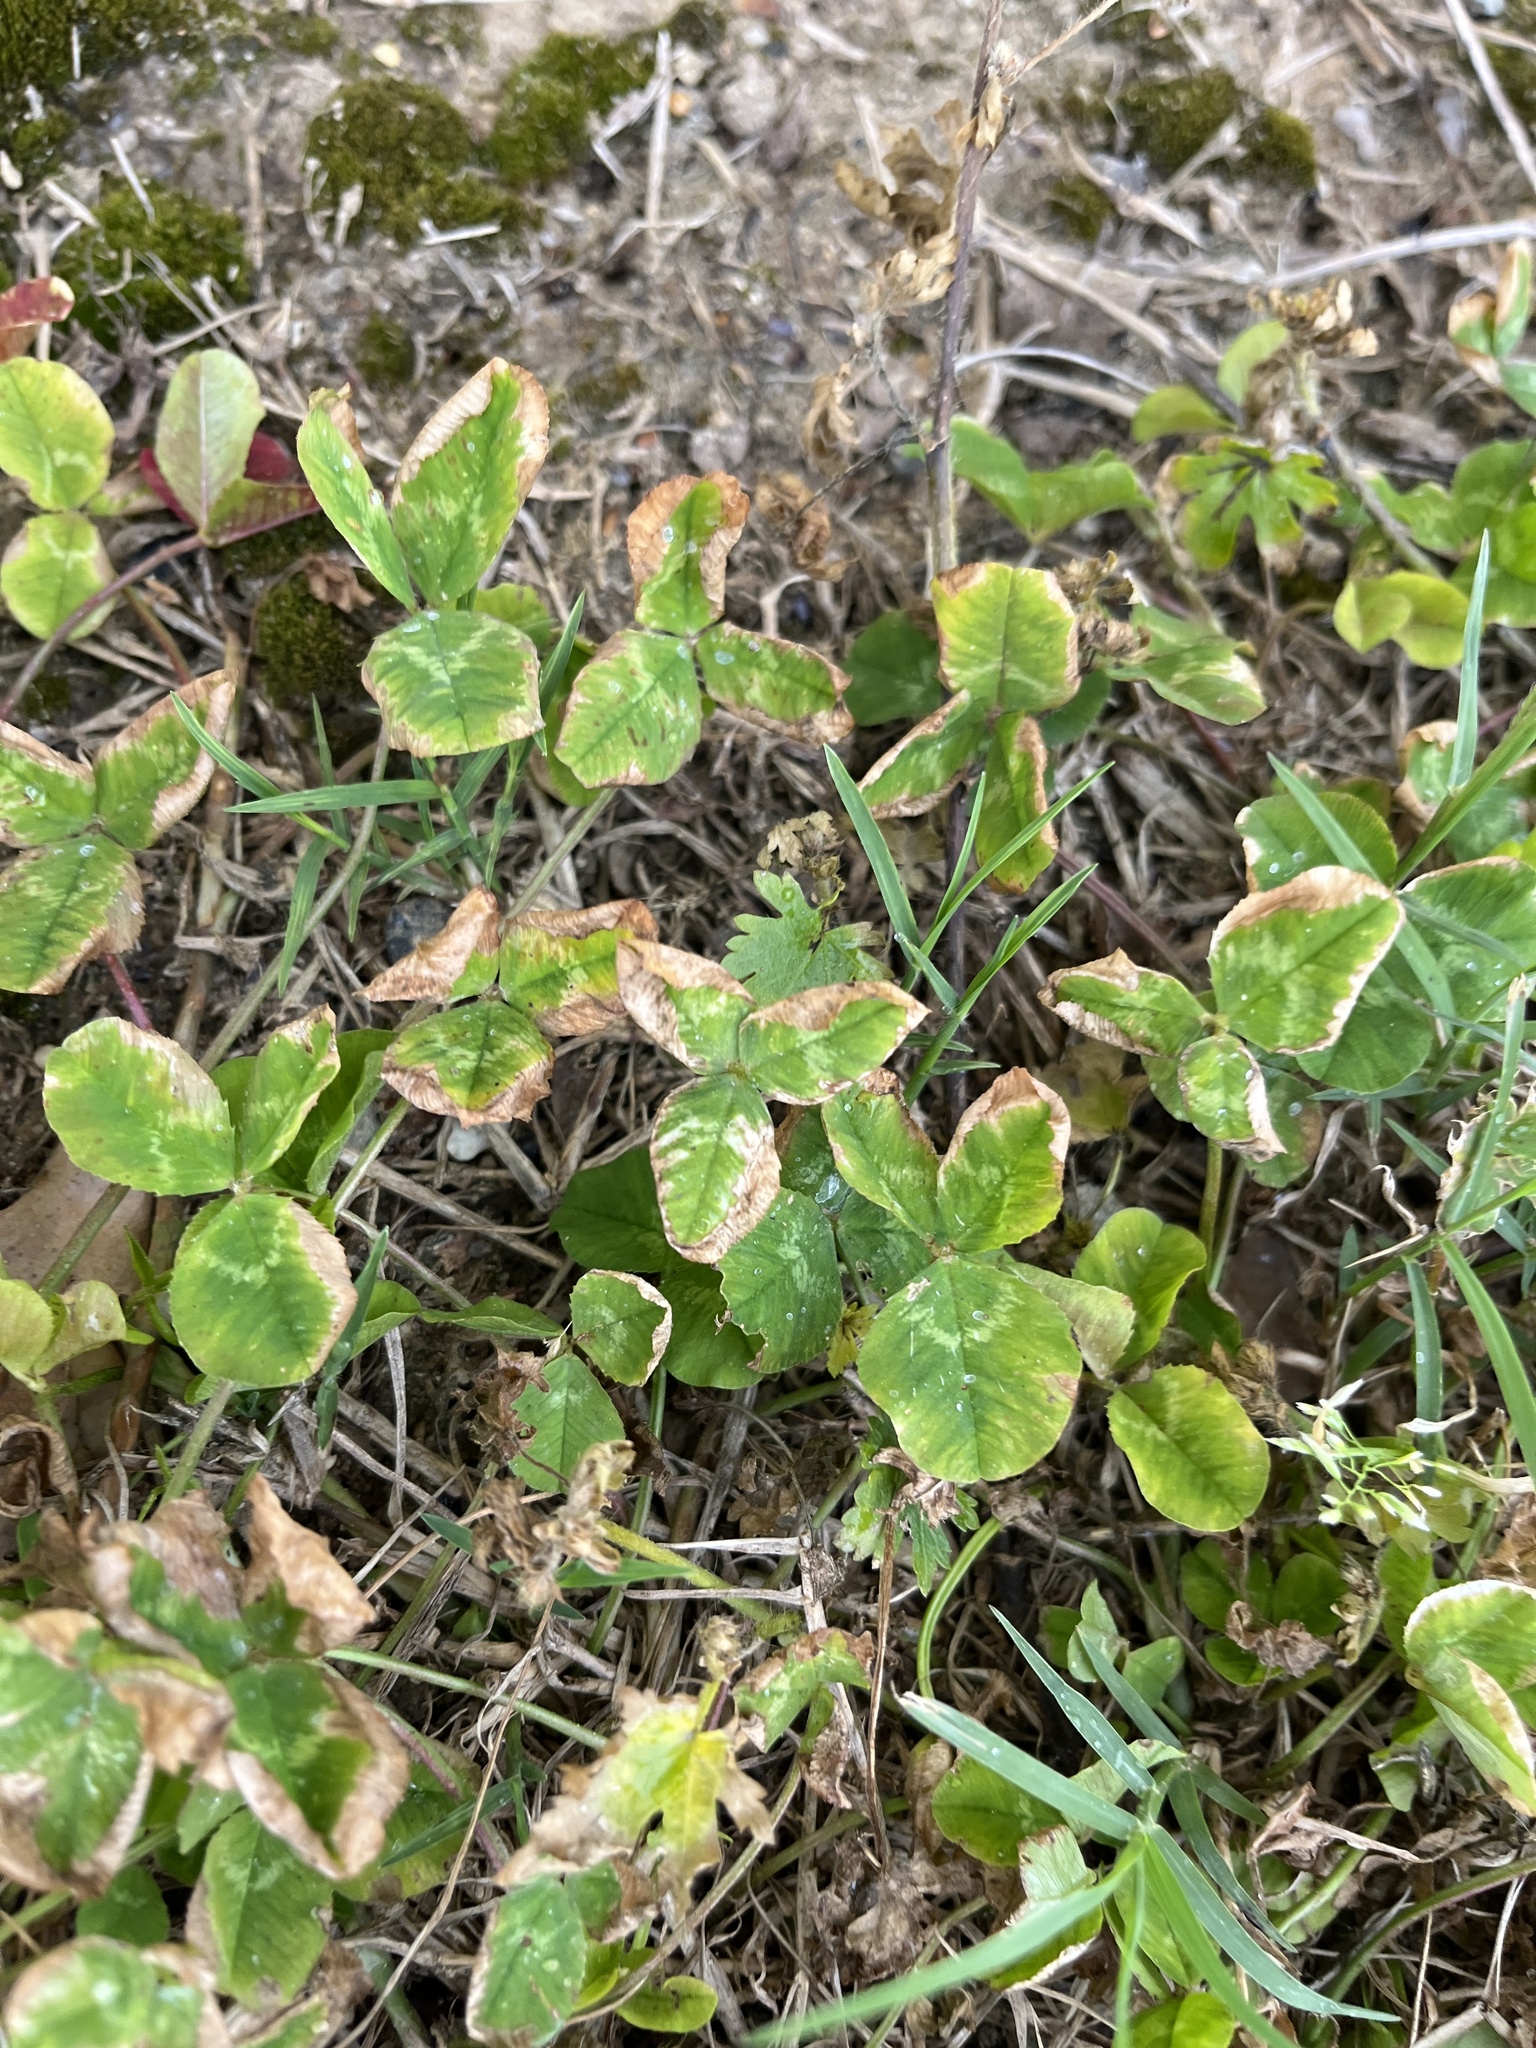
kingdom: Plantae
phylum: Tracheophyta
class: Magnoliopsida
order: Fabales
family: Fabaceae
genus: Trifolium
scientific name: Trifolium repens
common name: White clover
